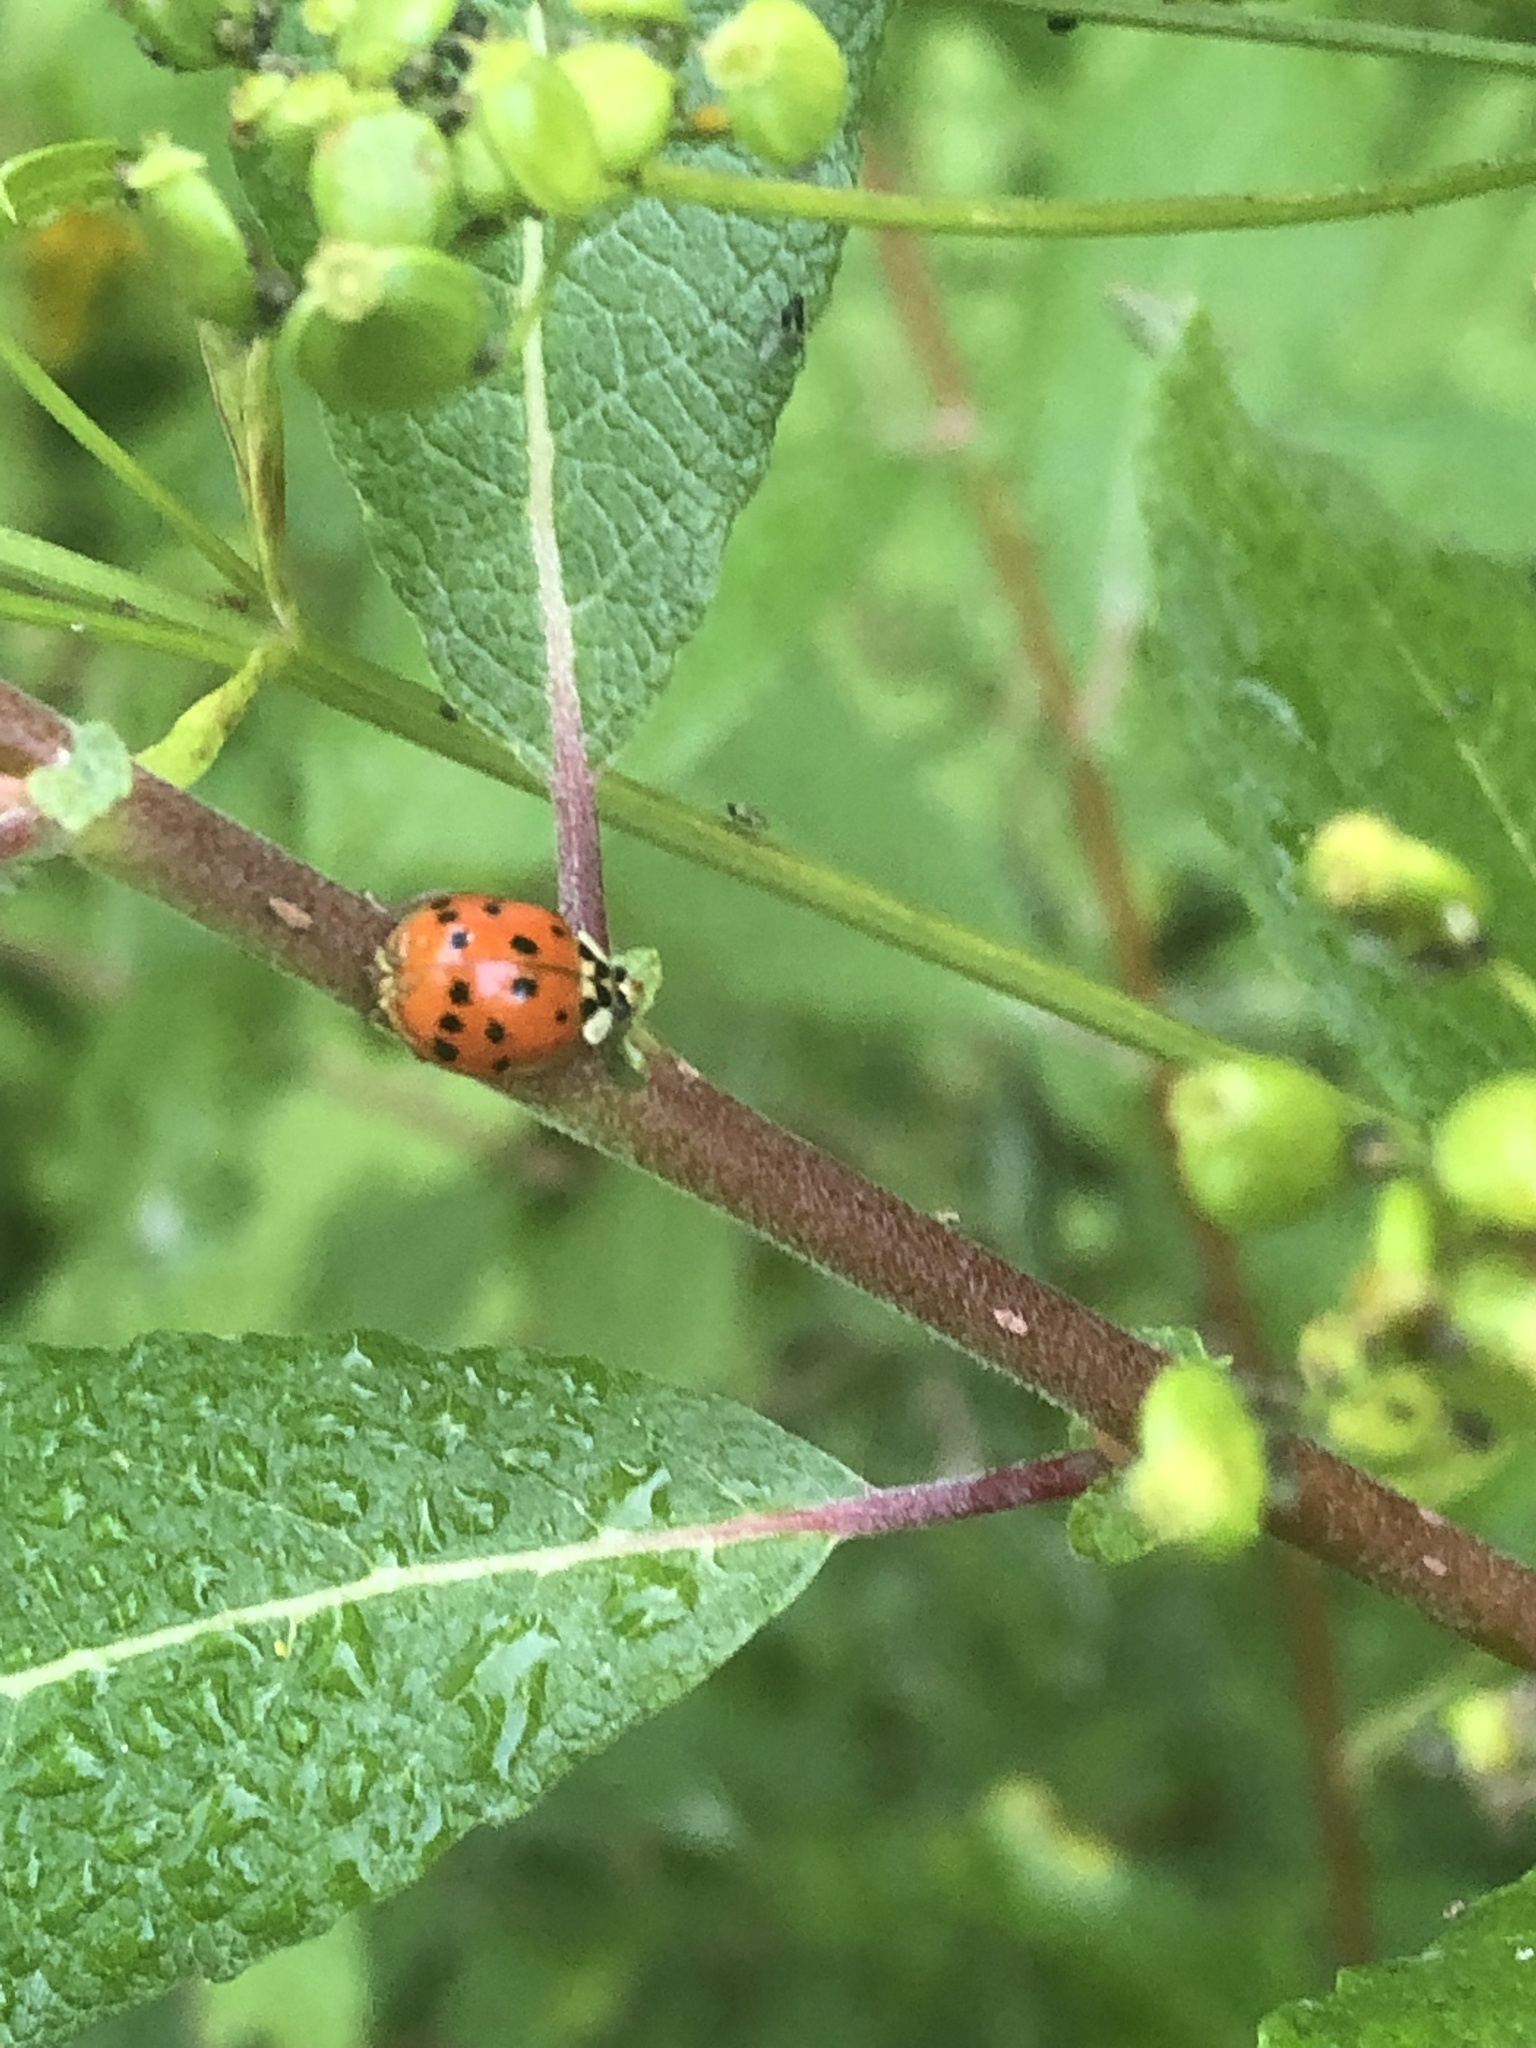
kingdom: Animalia
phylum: Arthropoda
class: Insecta
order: Coleoptera
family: Coccinellidae
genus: Harmonia
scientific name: Harmonia axyridis
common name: Harlequin ladybird
